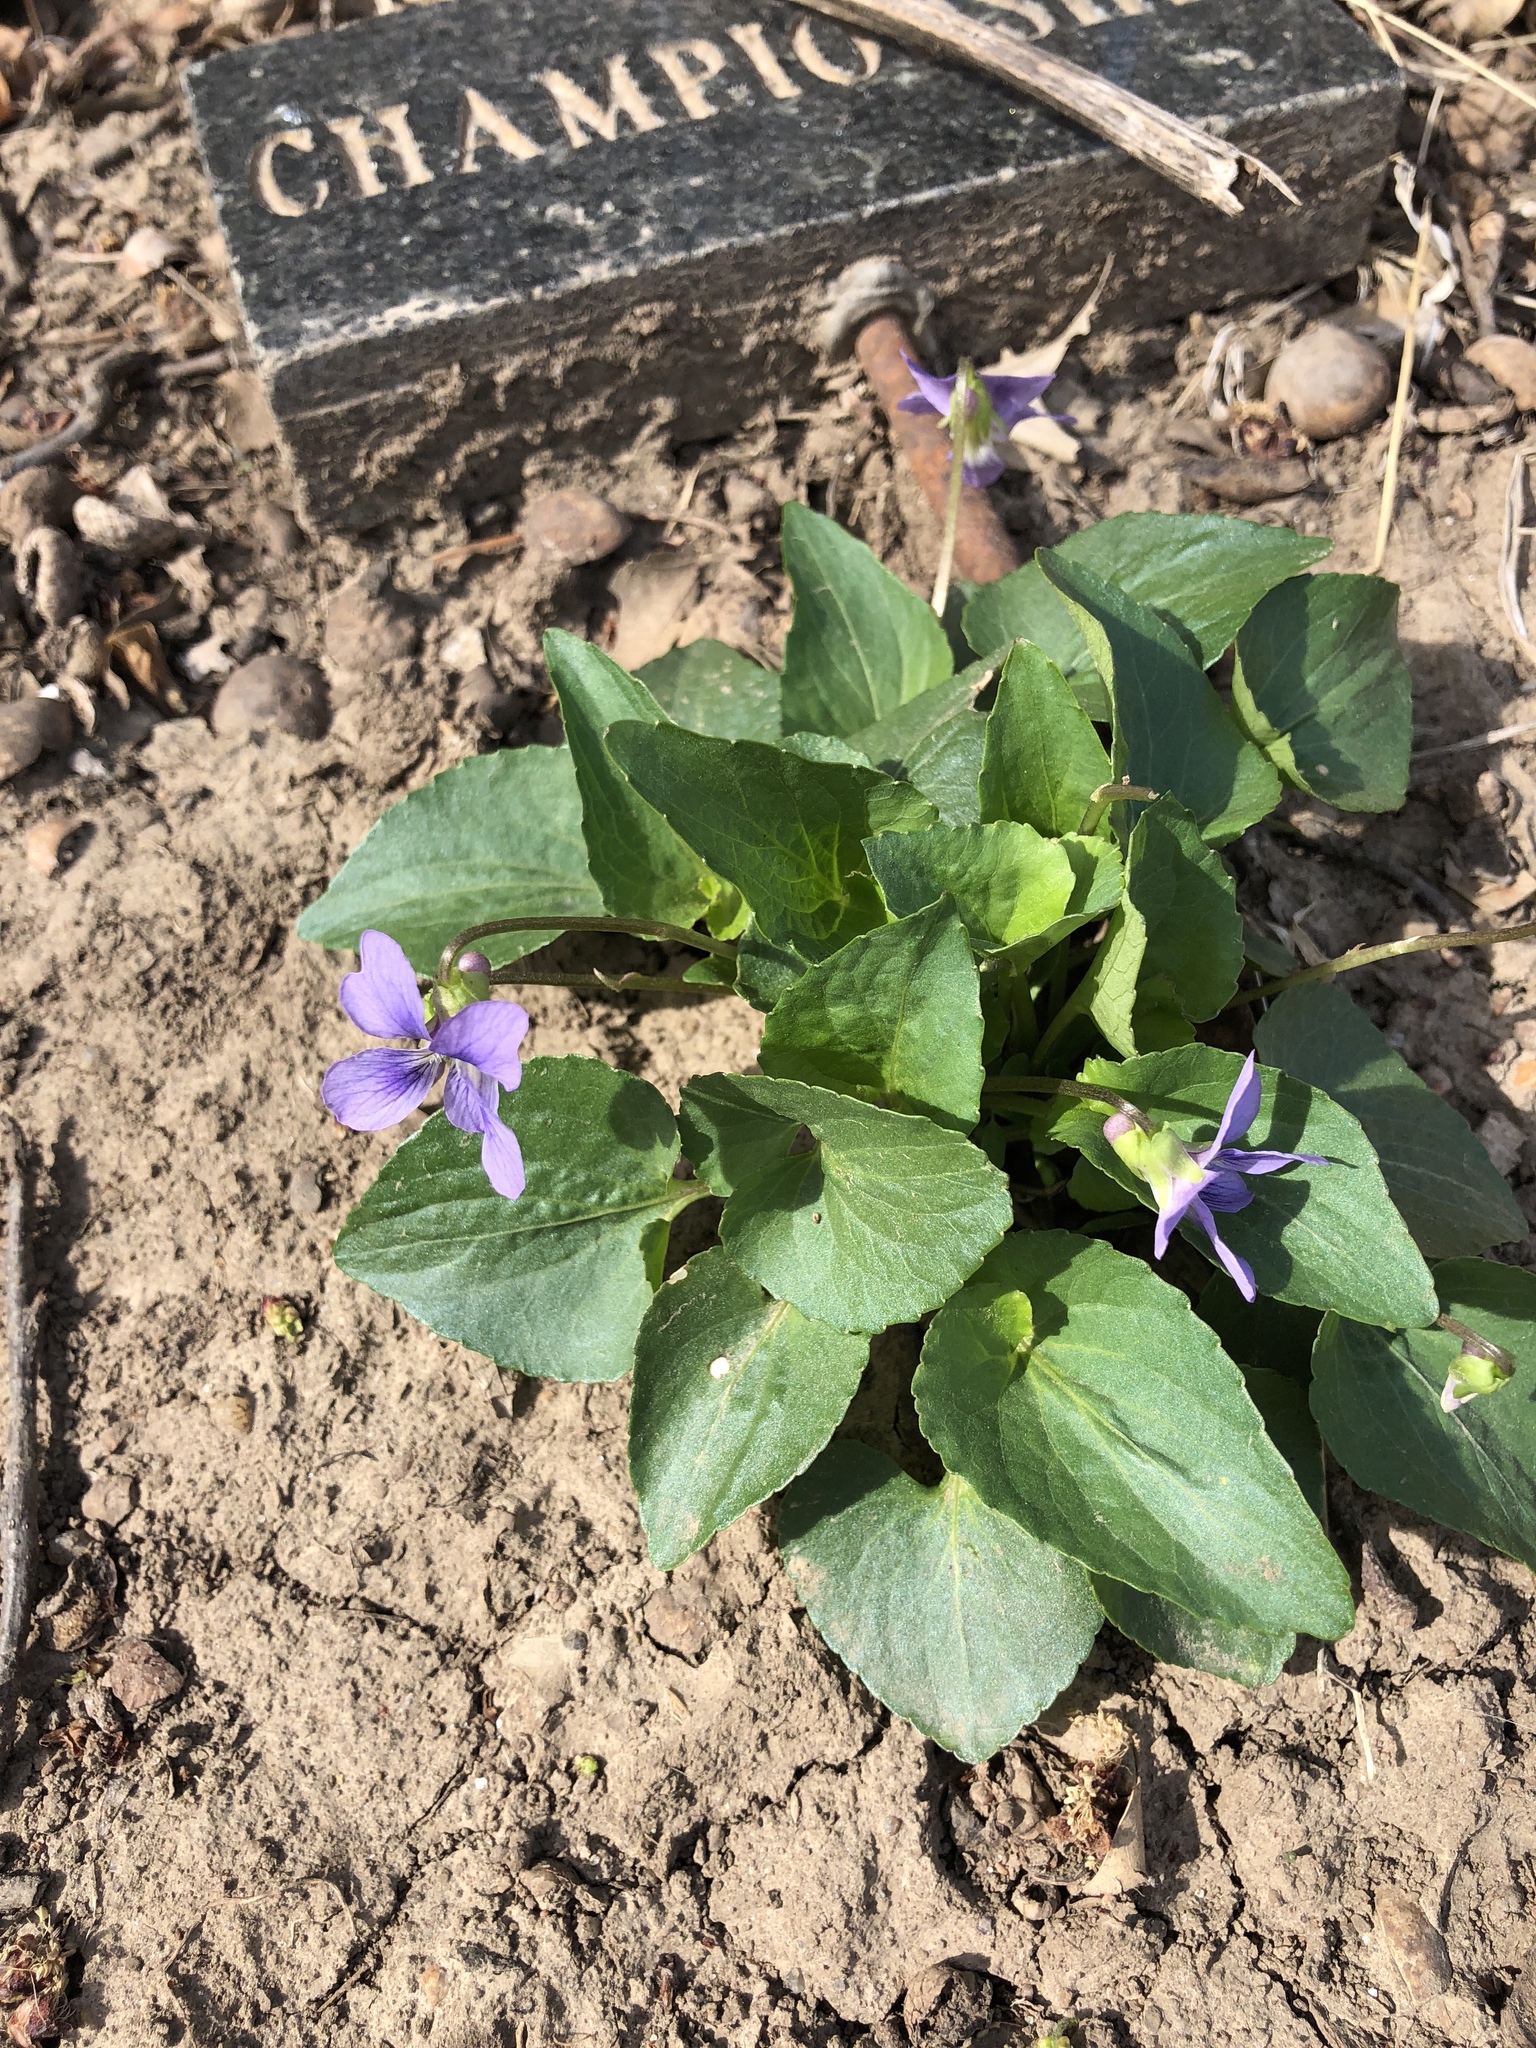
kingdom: Plantae
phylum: Tracheophyta
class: Magnoliopsida
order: Malpighiales
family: Violaceae
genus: Viola
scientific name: Viola sororia
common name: Dooryard violet
